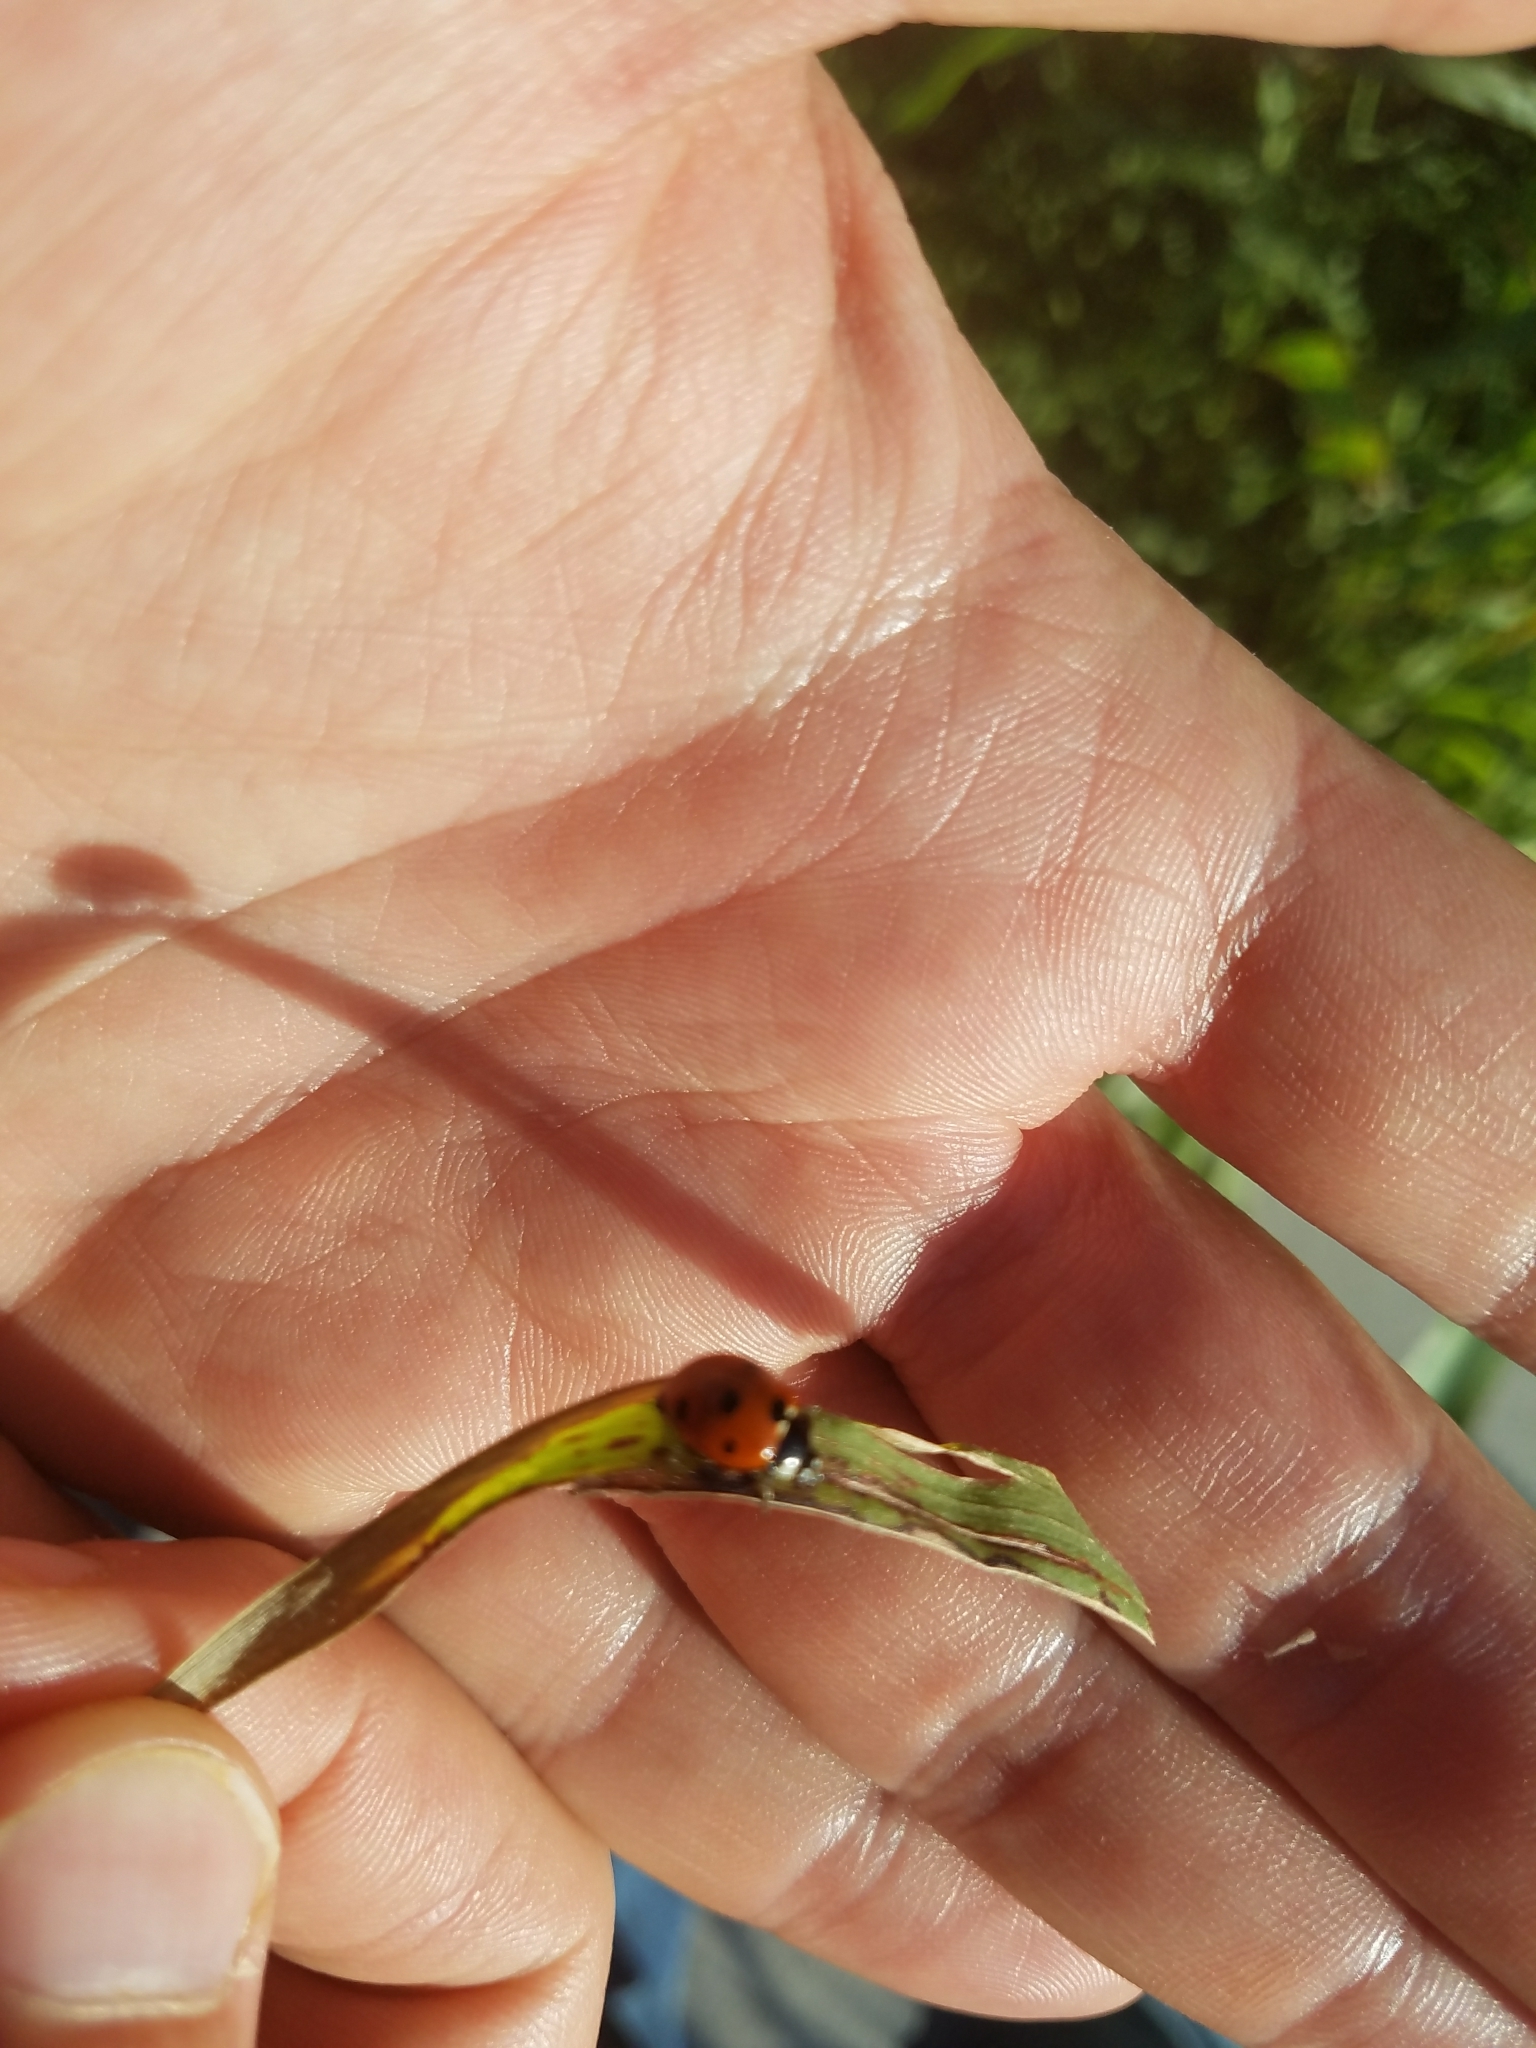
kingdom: Animalia
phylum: Arthropoda
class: Insecta
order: Coleoptera
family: Coccinellidae
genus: Coccinella
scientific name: Coccinella septempunctata
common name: Sevenspotted lady beetle
